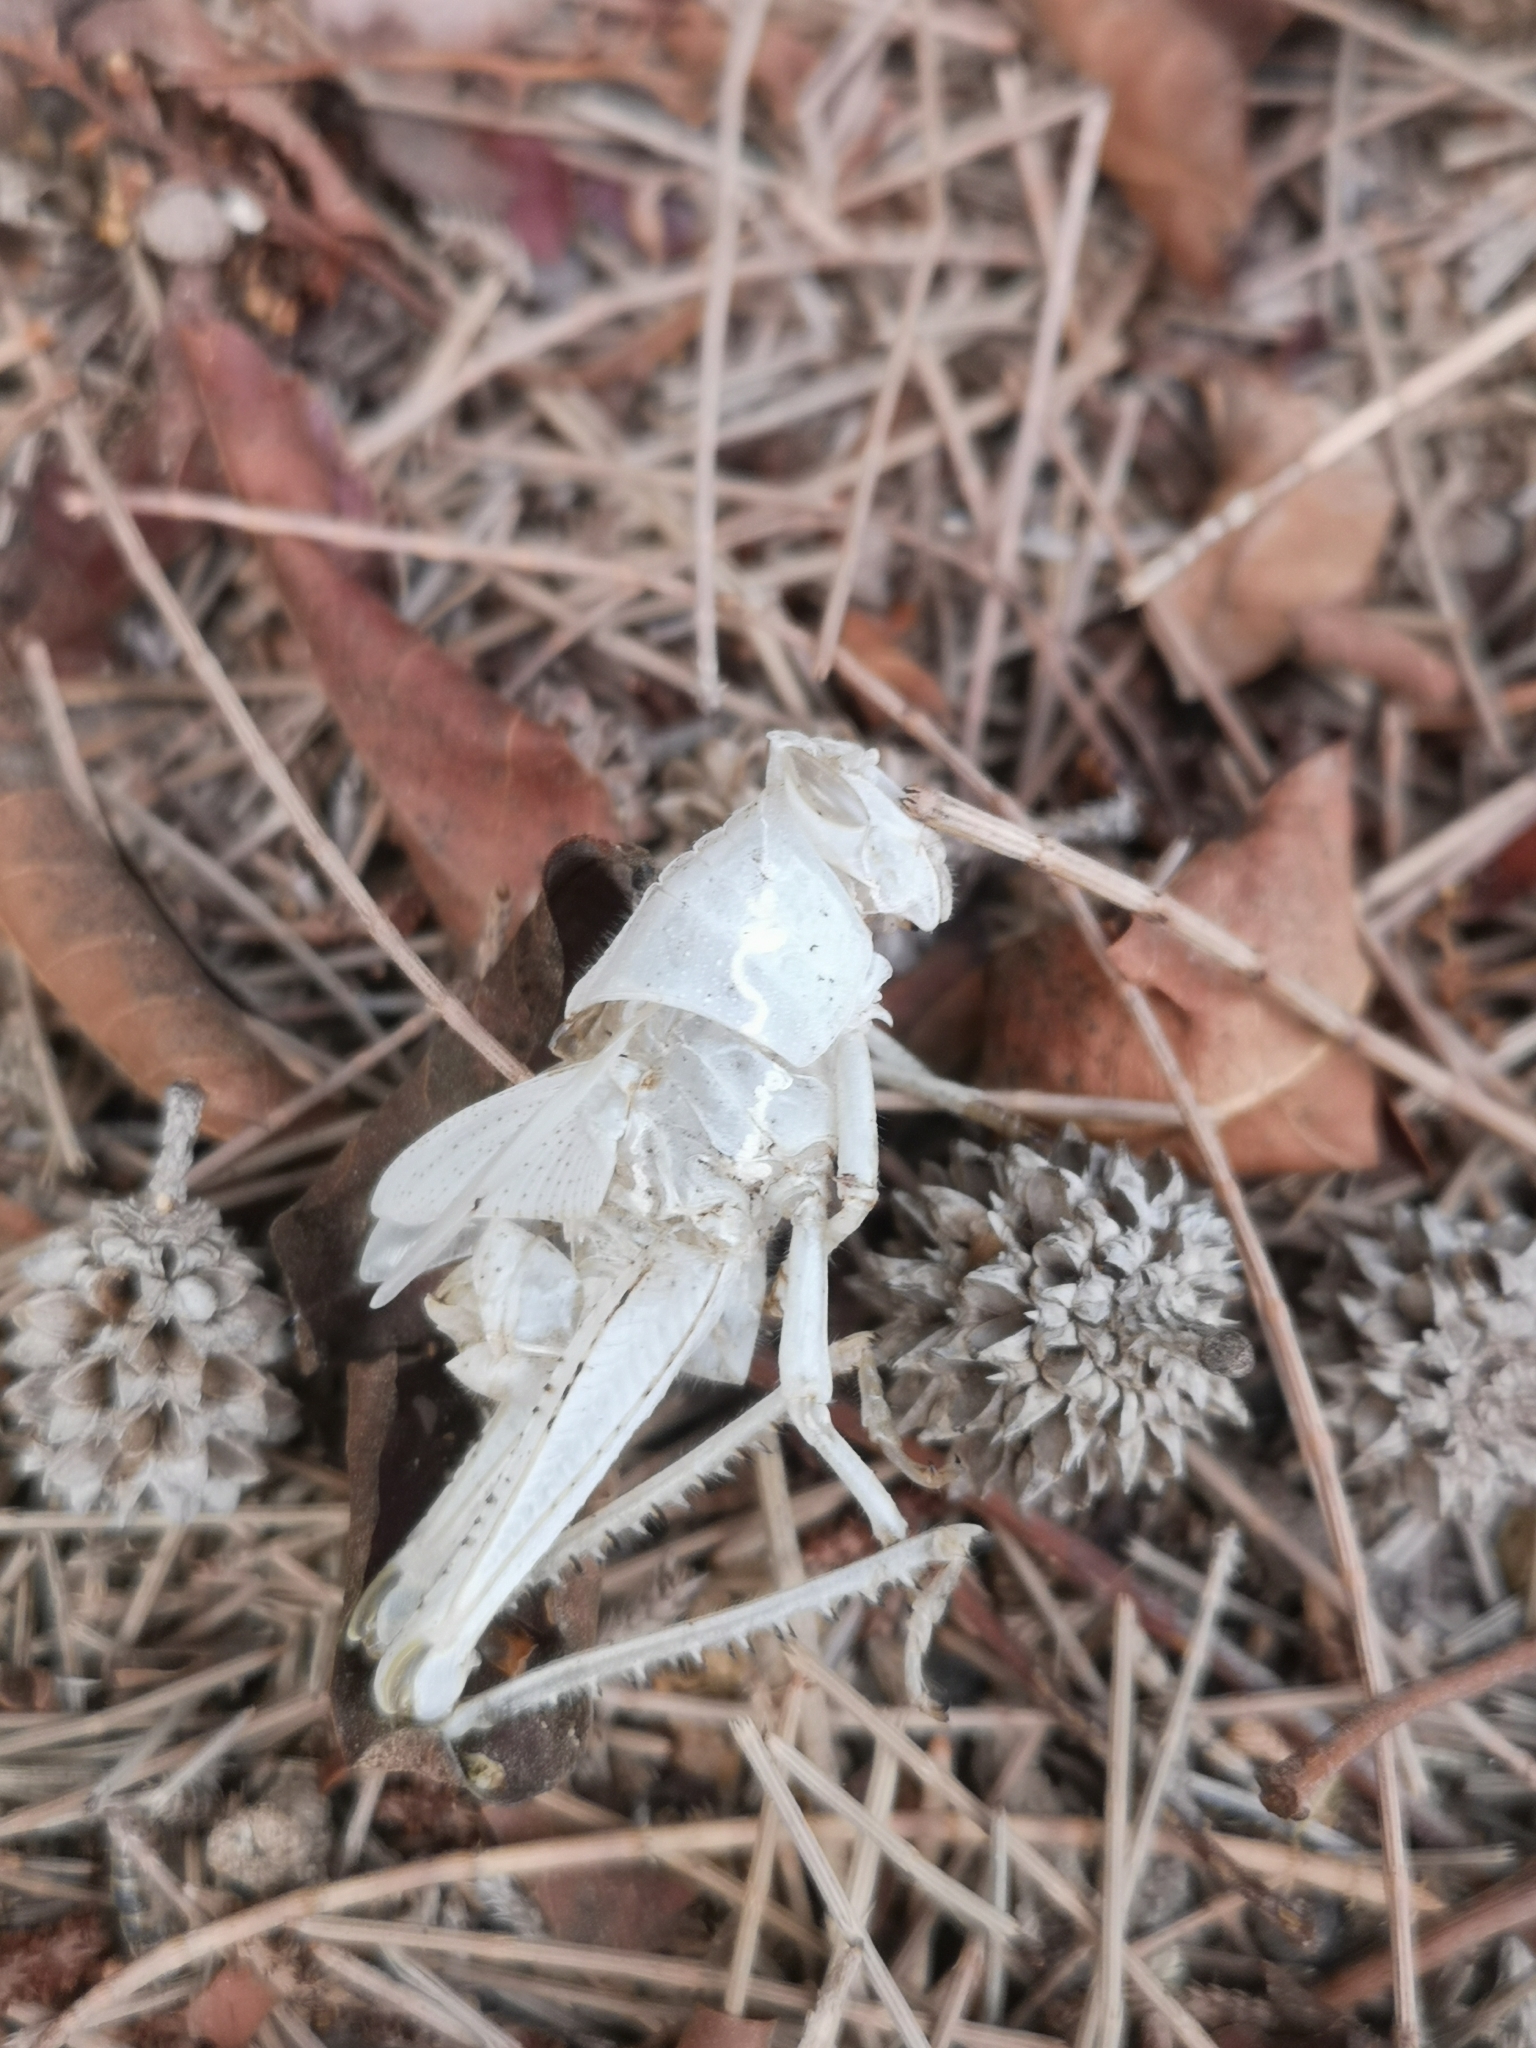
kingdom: Animalia
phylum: Arthropoda
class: Insecta
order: Orthoptera
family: Acrididae
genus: Anacridium
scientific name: Anacridium aegyptium
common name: Egyptian grasshopper
